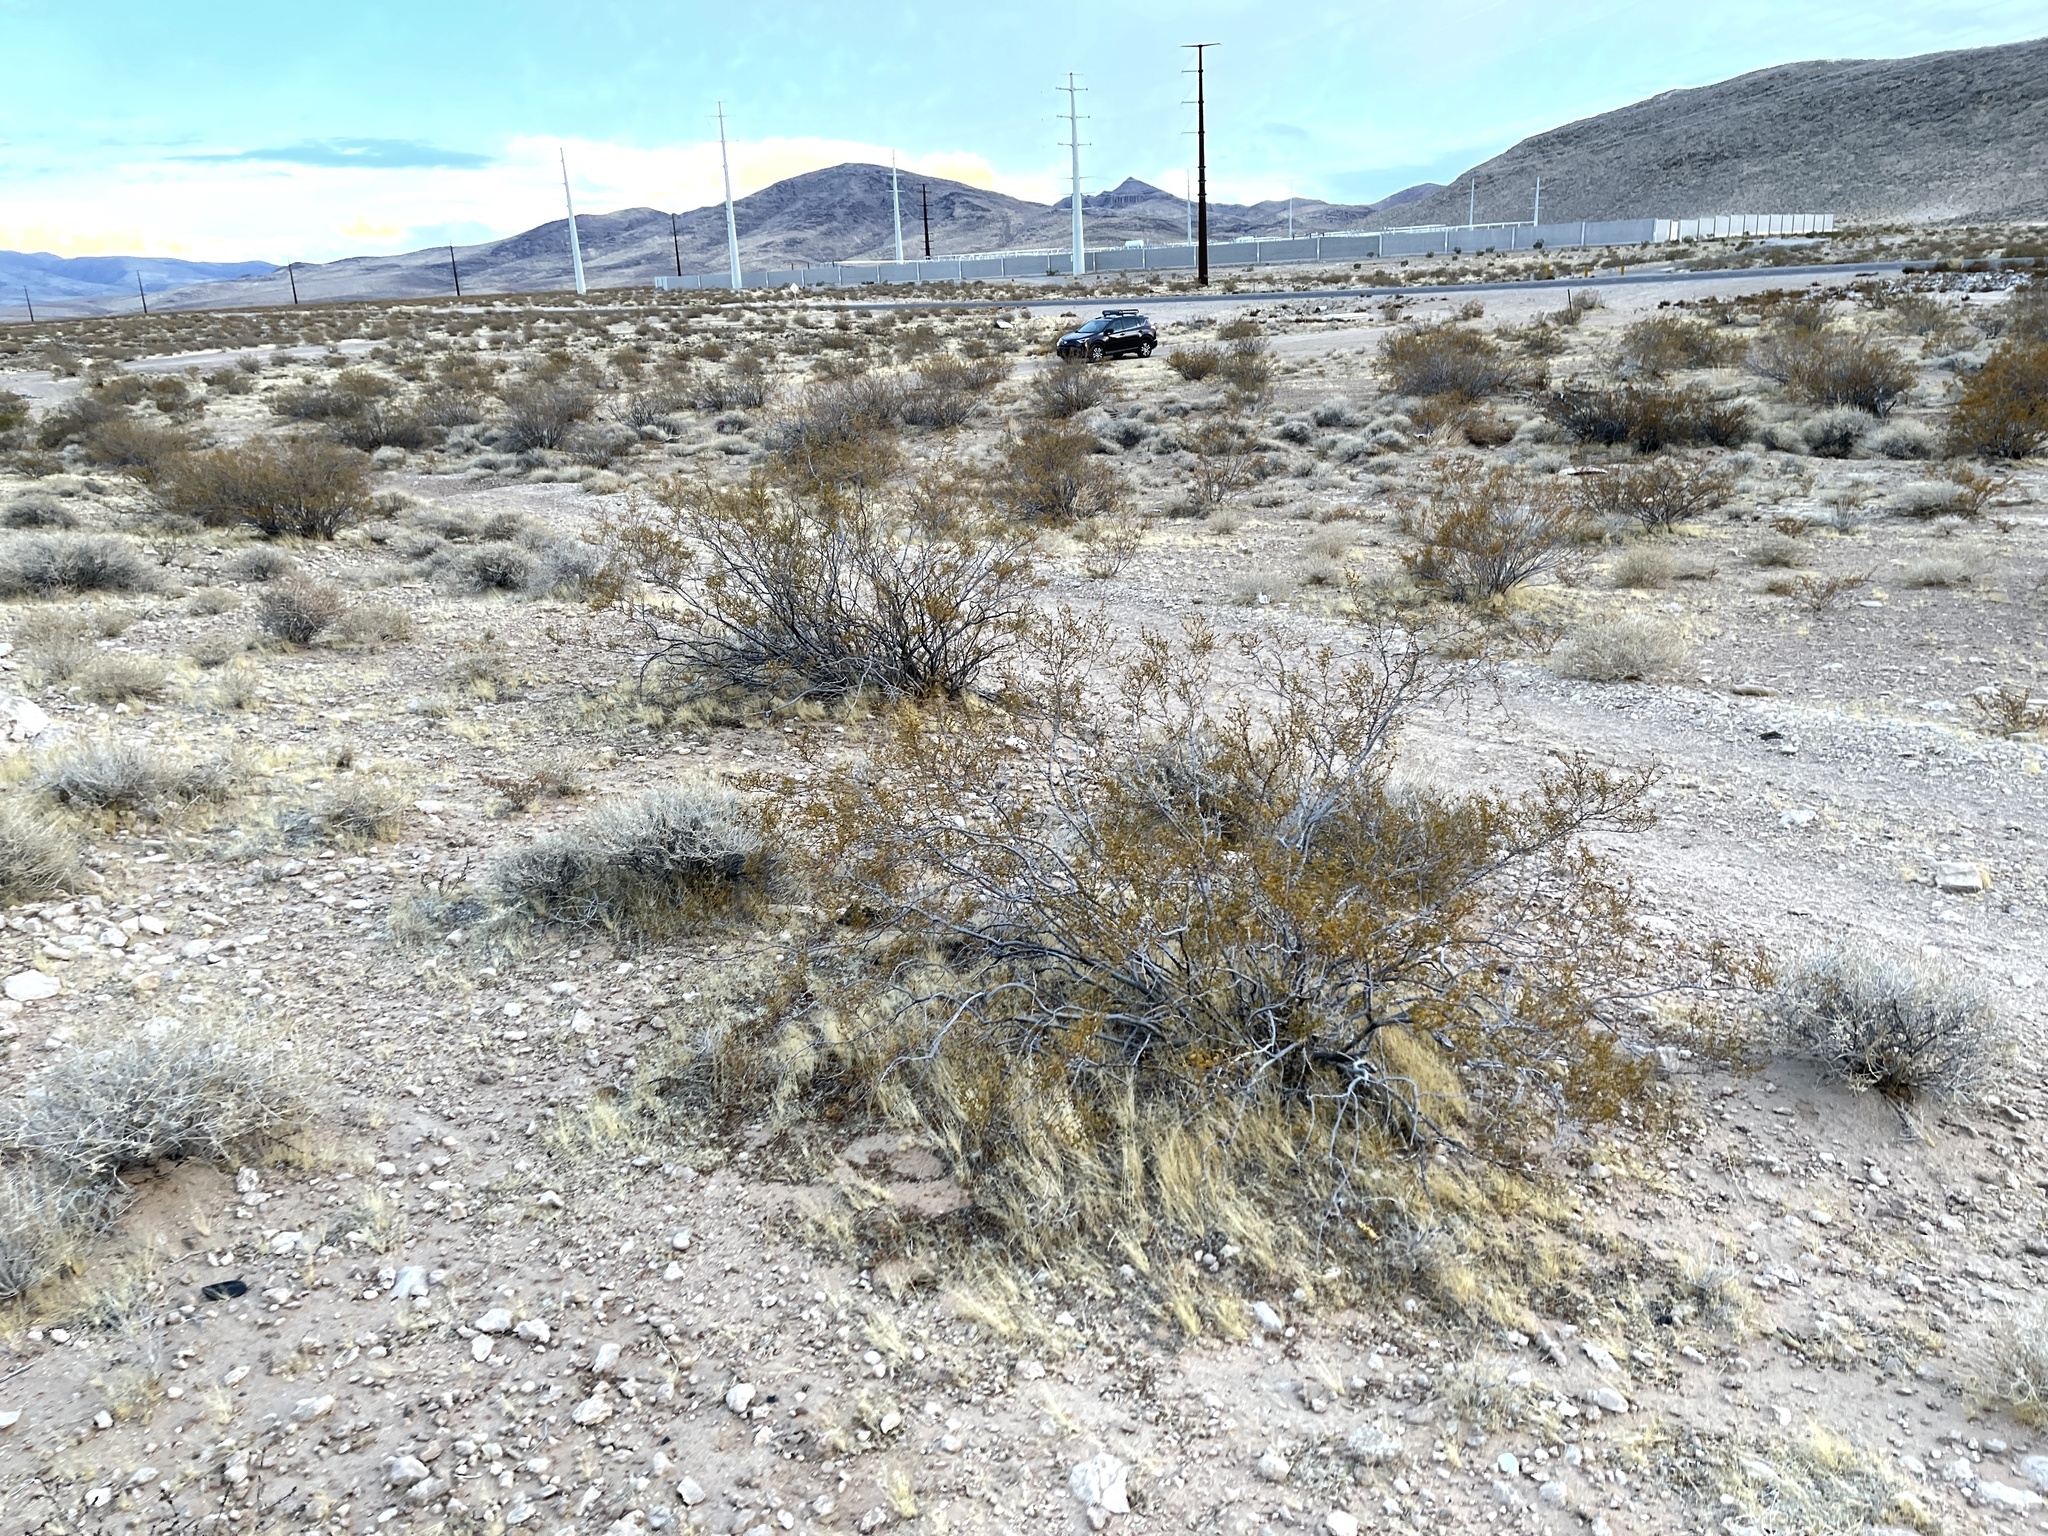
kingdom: Plantae
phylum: Tracheophyta
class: Magnoliopsida
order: Zygophyllales
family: Zygophyllaceae
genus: Larrea
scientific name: Larrea tridentata
